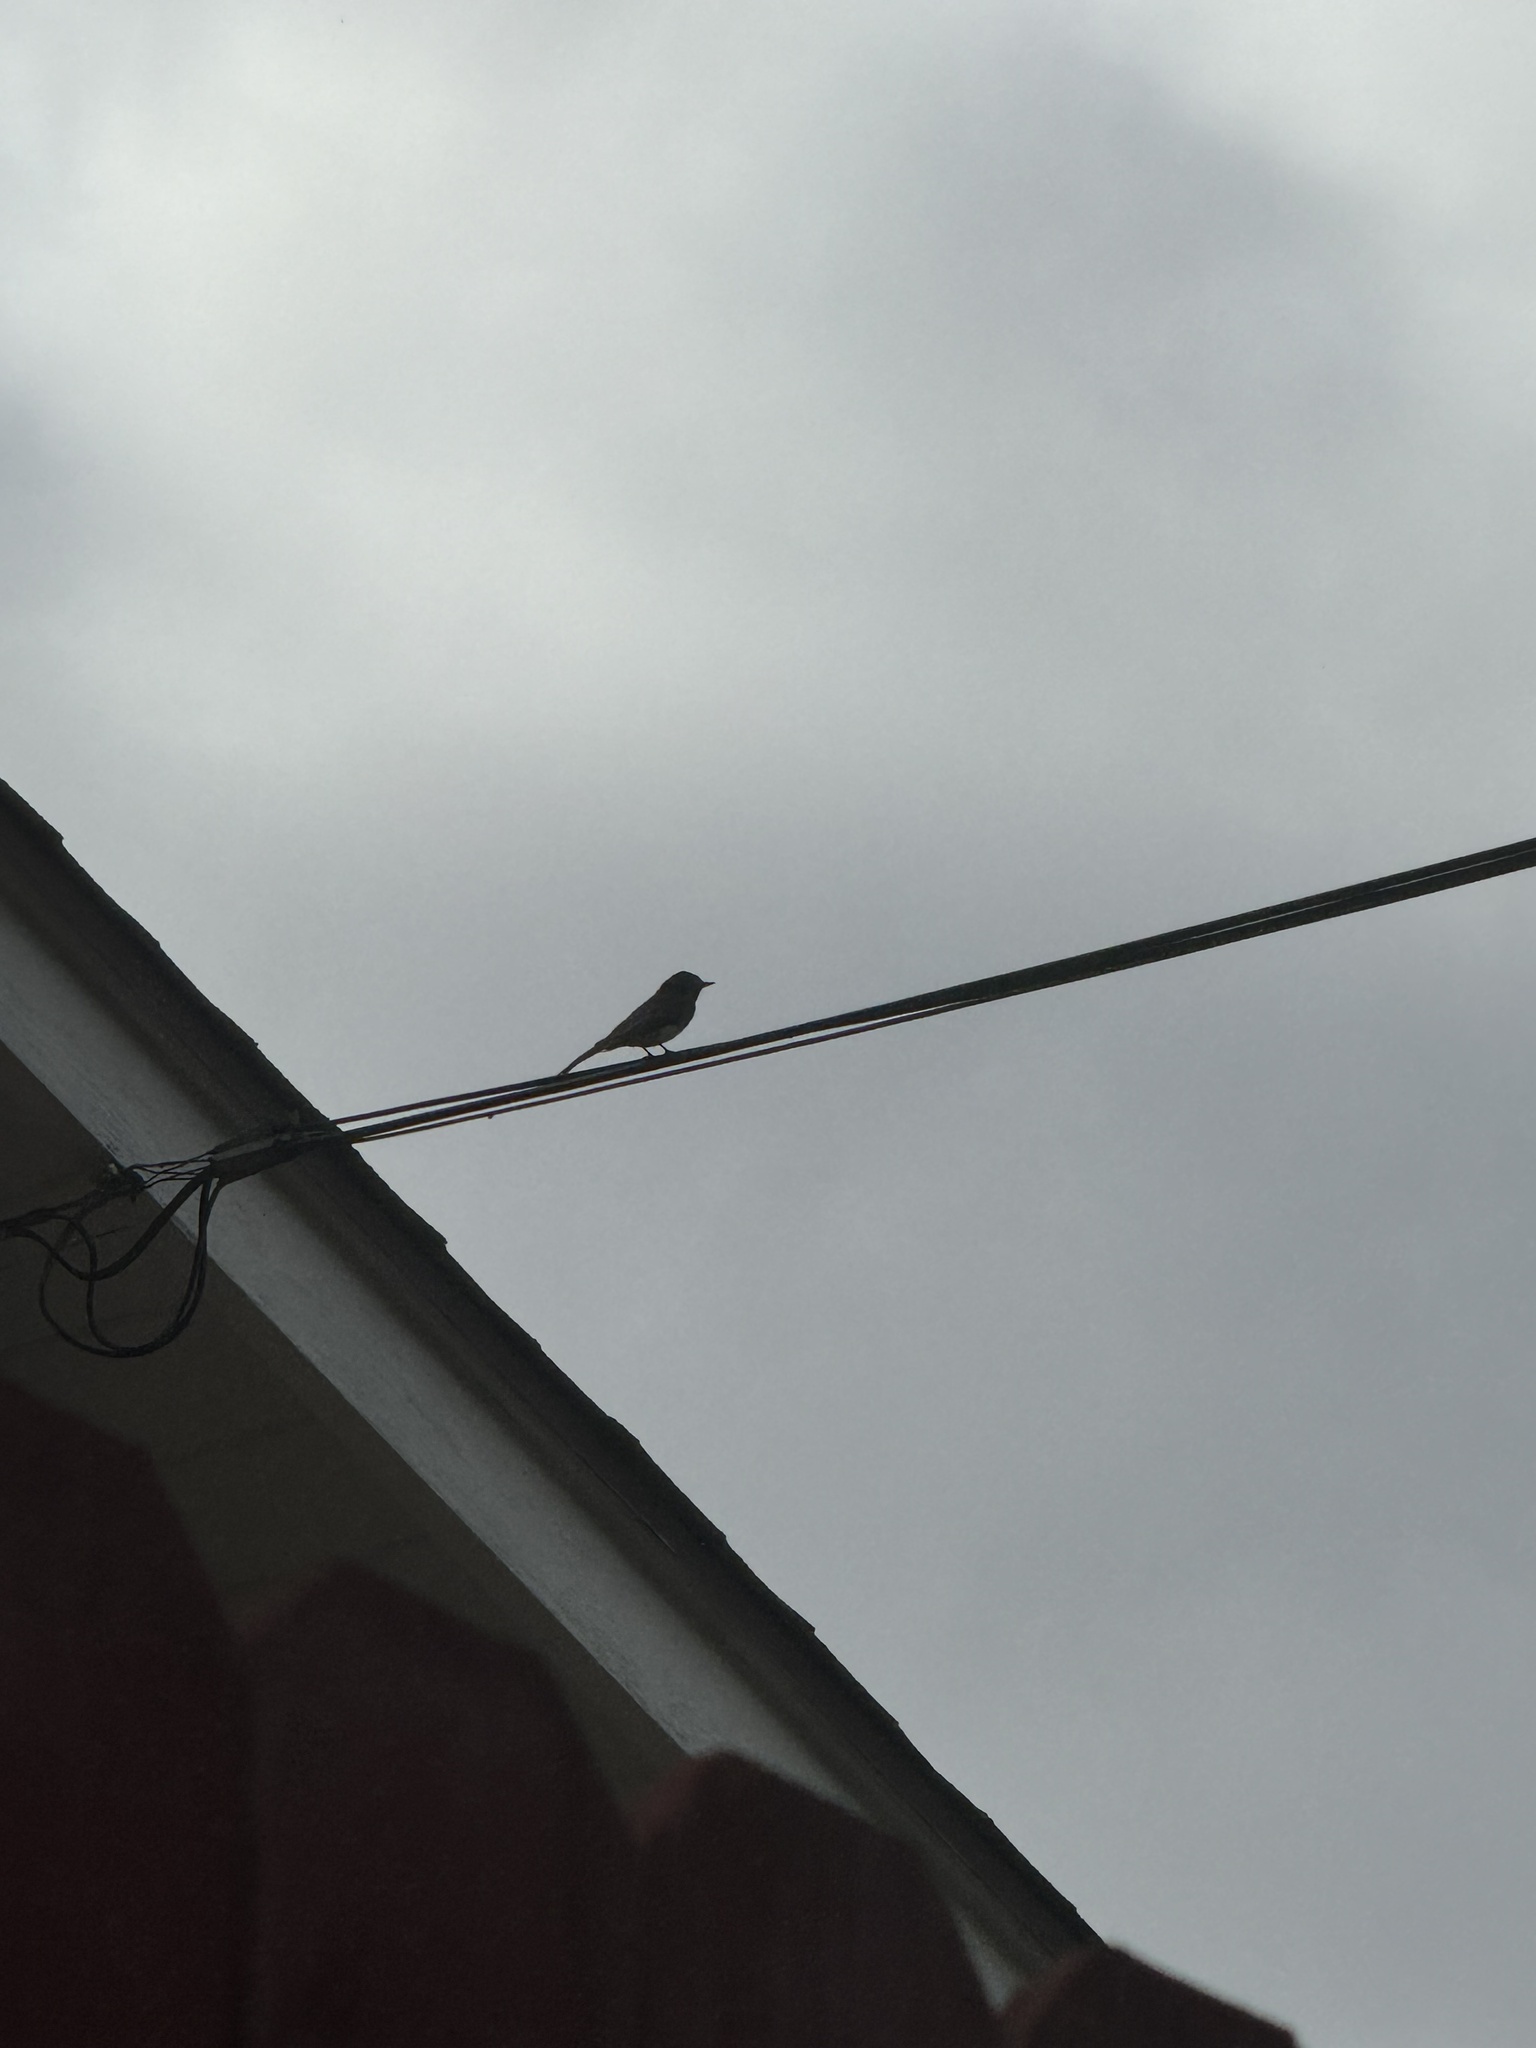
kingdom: Animalia
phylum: Chordata
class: Aves
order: Passeriformes
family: Tyrannidae
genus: Sayornis
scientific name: Sayornis nigricans
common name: Black phoebe
